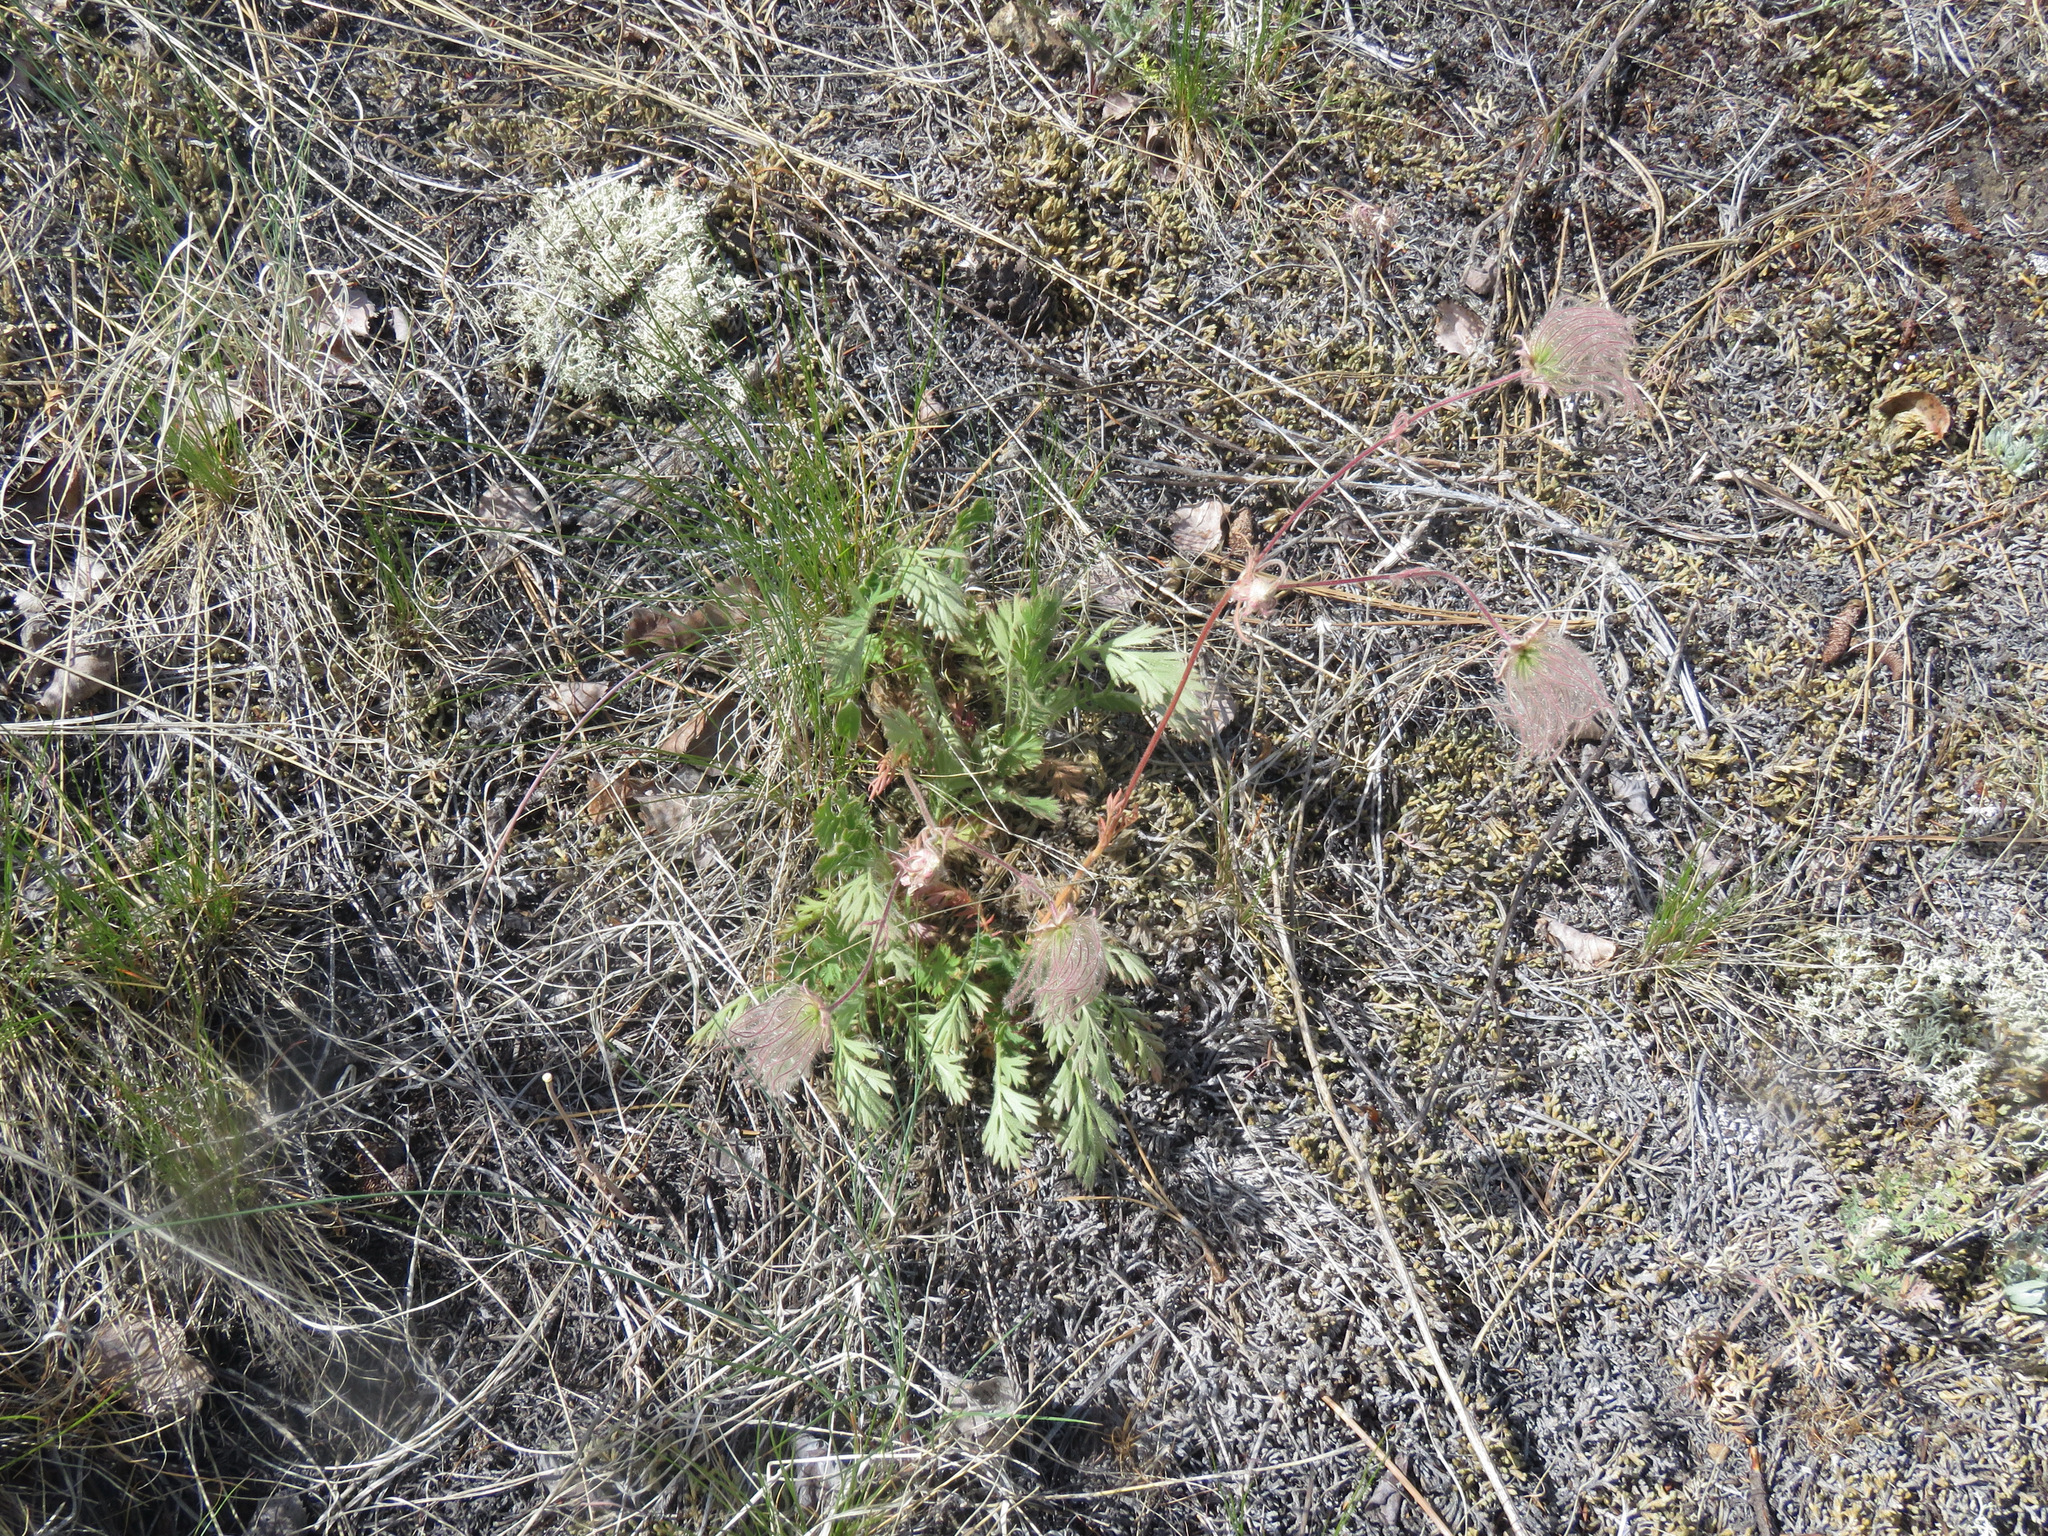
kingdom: Plantae
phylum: Tracheophyta
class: Magnoliopsida
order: Rosales
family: Rosaceae
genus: Geum
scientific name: Geum triflorum
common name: Old man's whiskers
